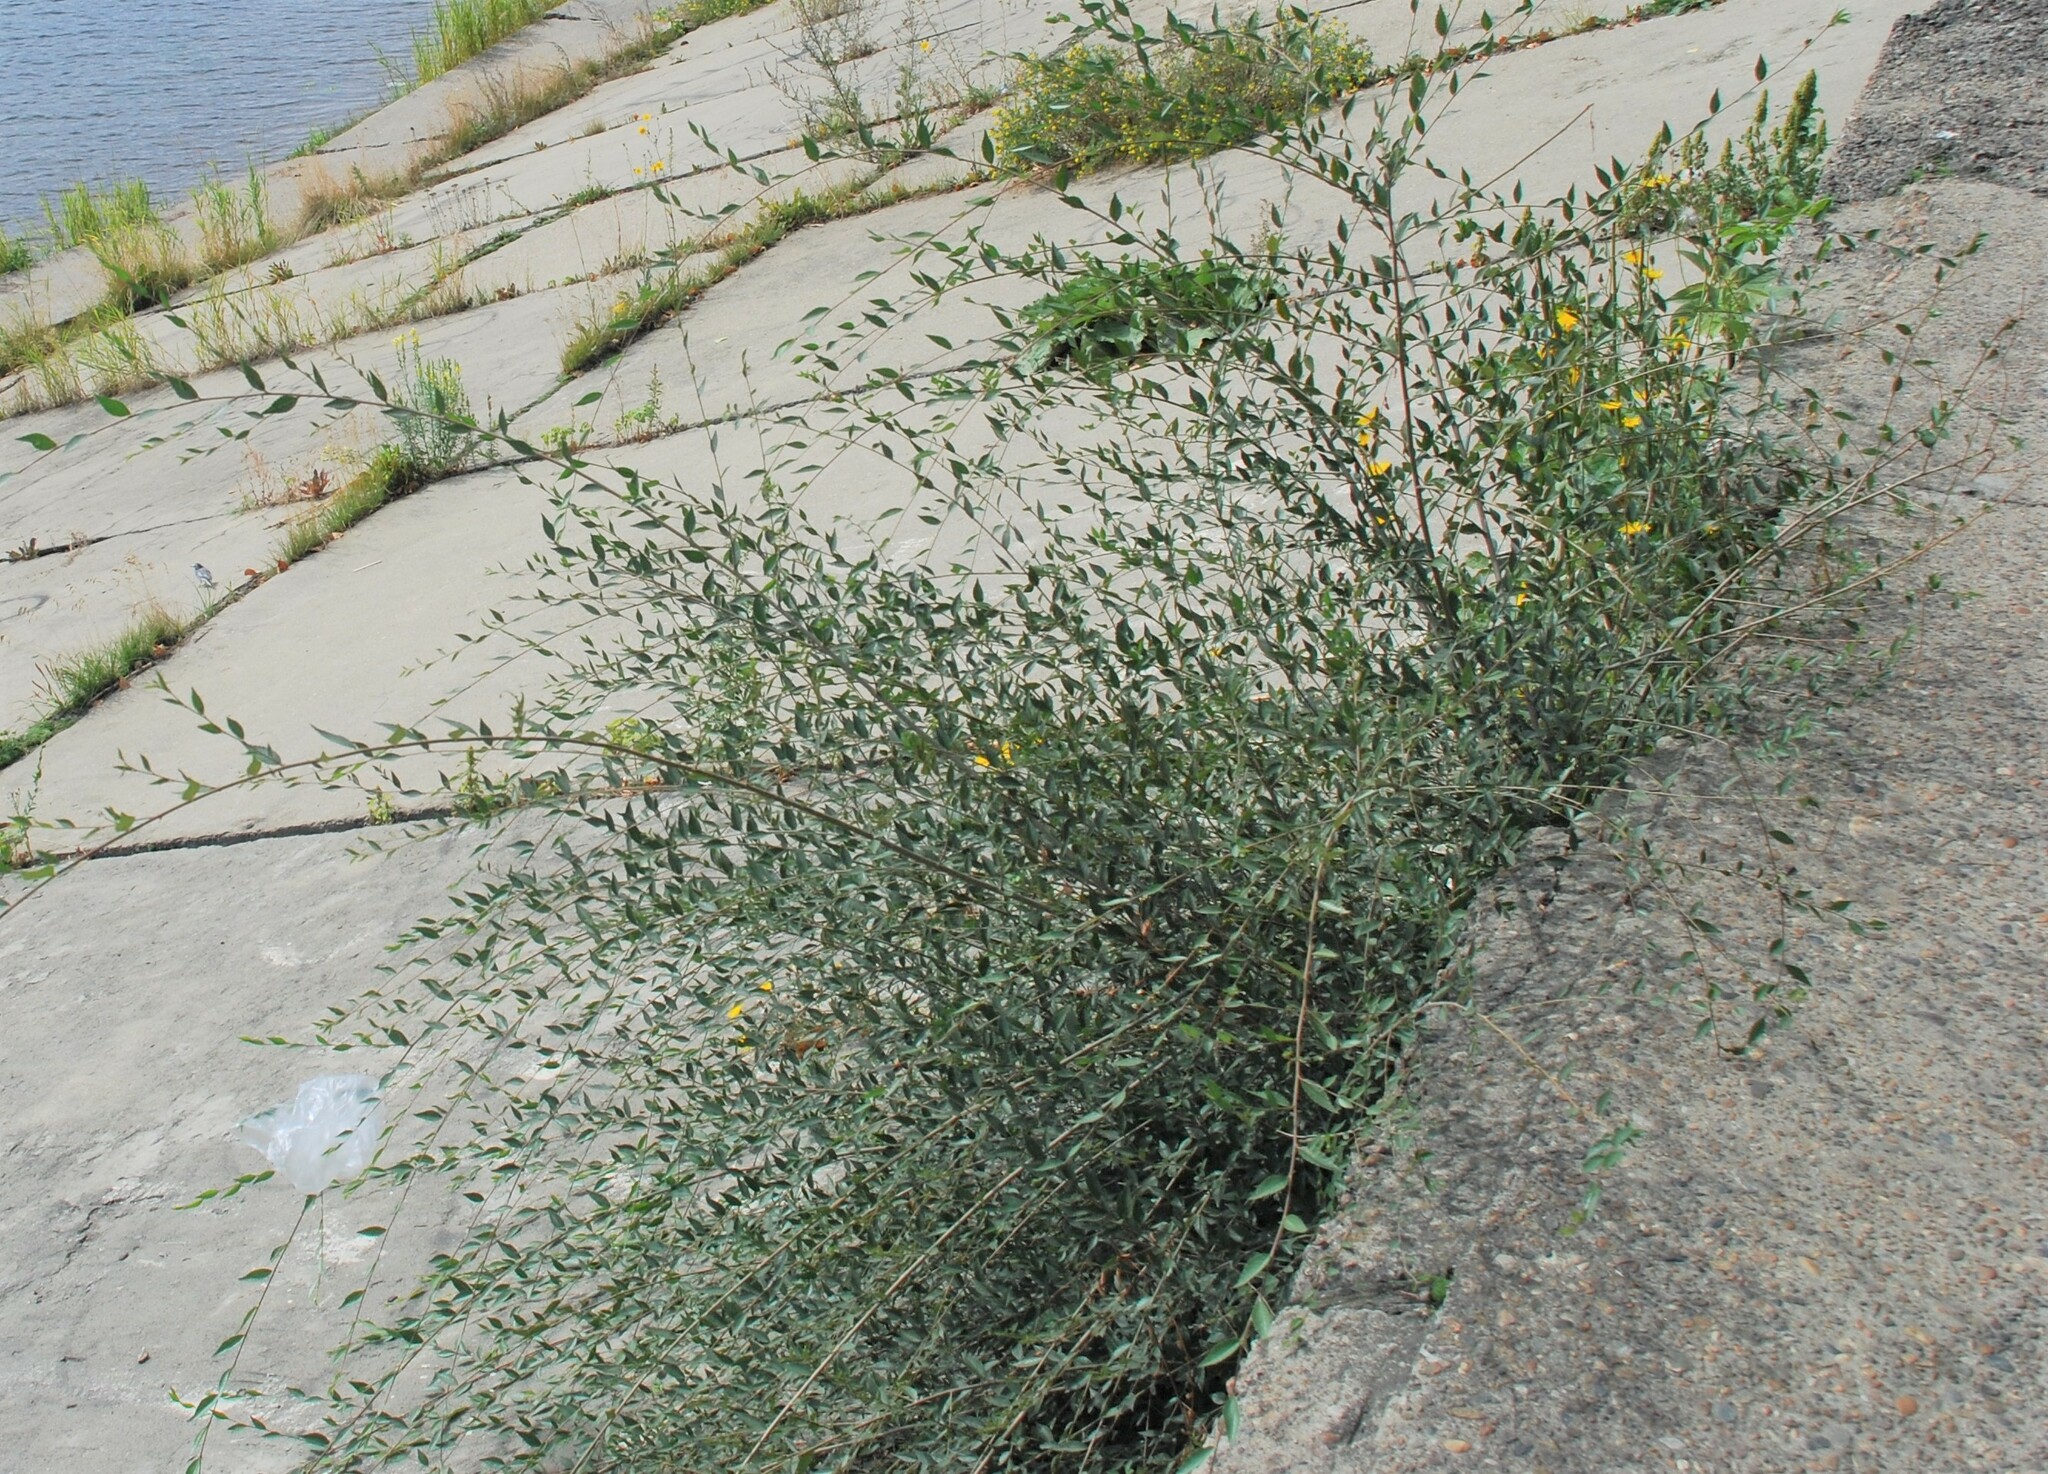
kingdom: Plantae
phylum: Tracheophyta
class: Magnoliopsida
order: Rosales
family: Ulmaceae
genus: Ulmus
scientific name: Ulmus pumila
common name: Siberian elm
